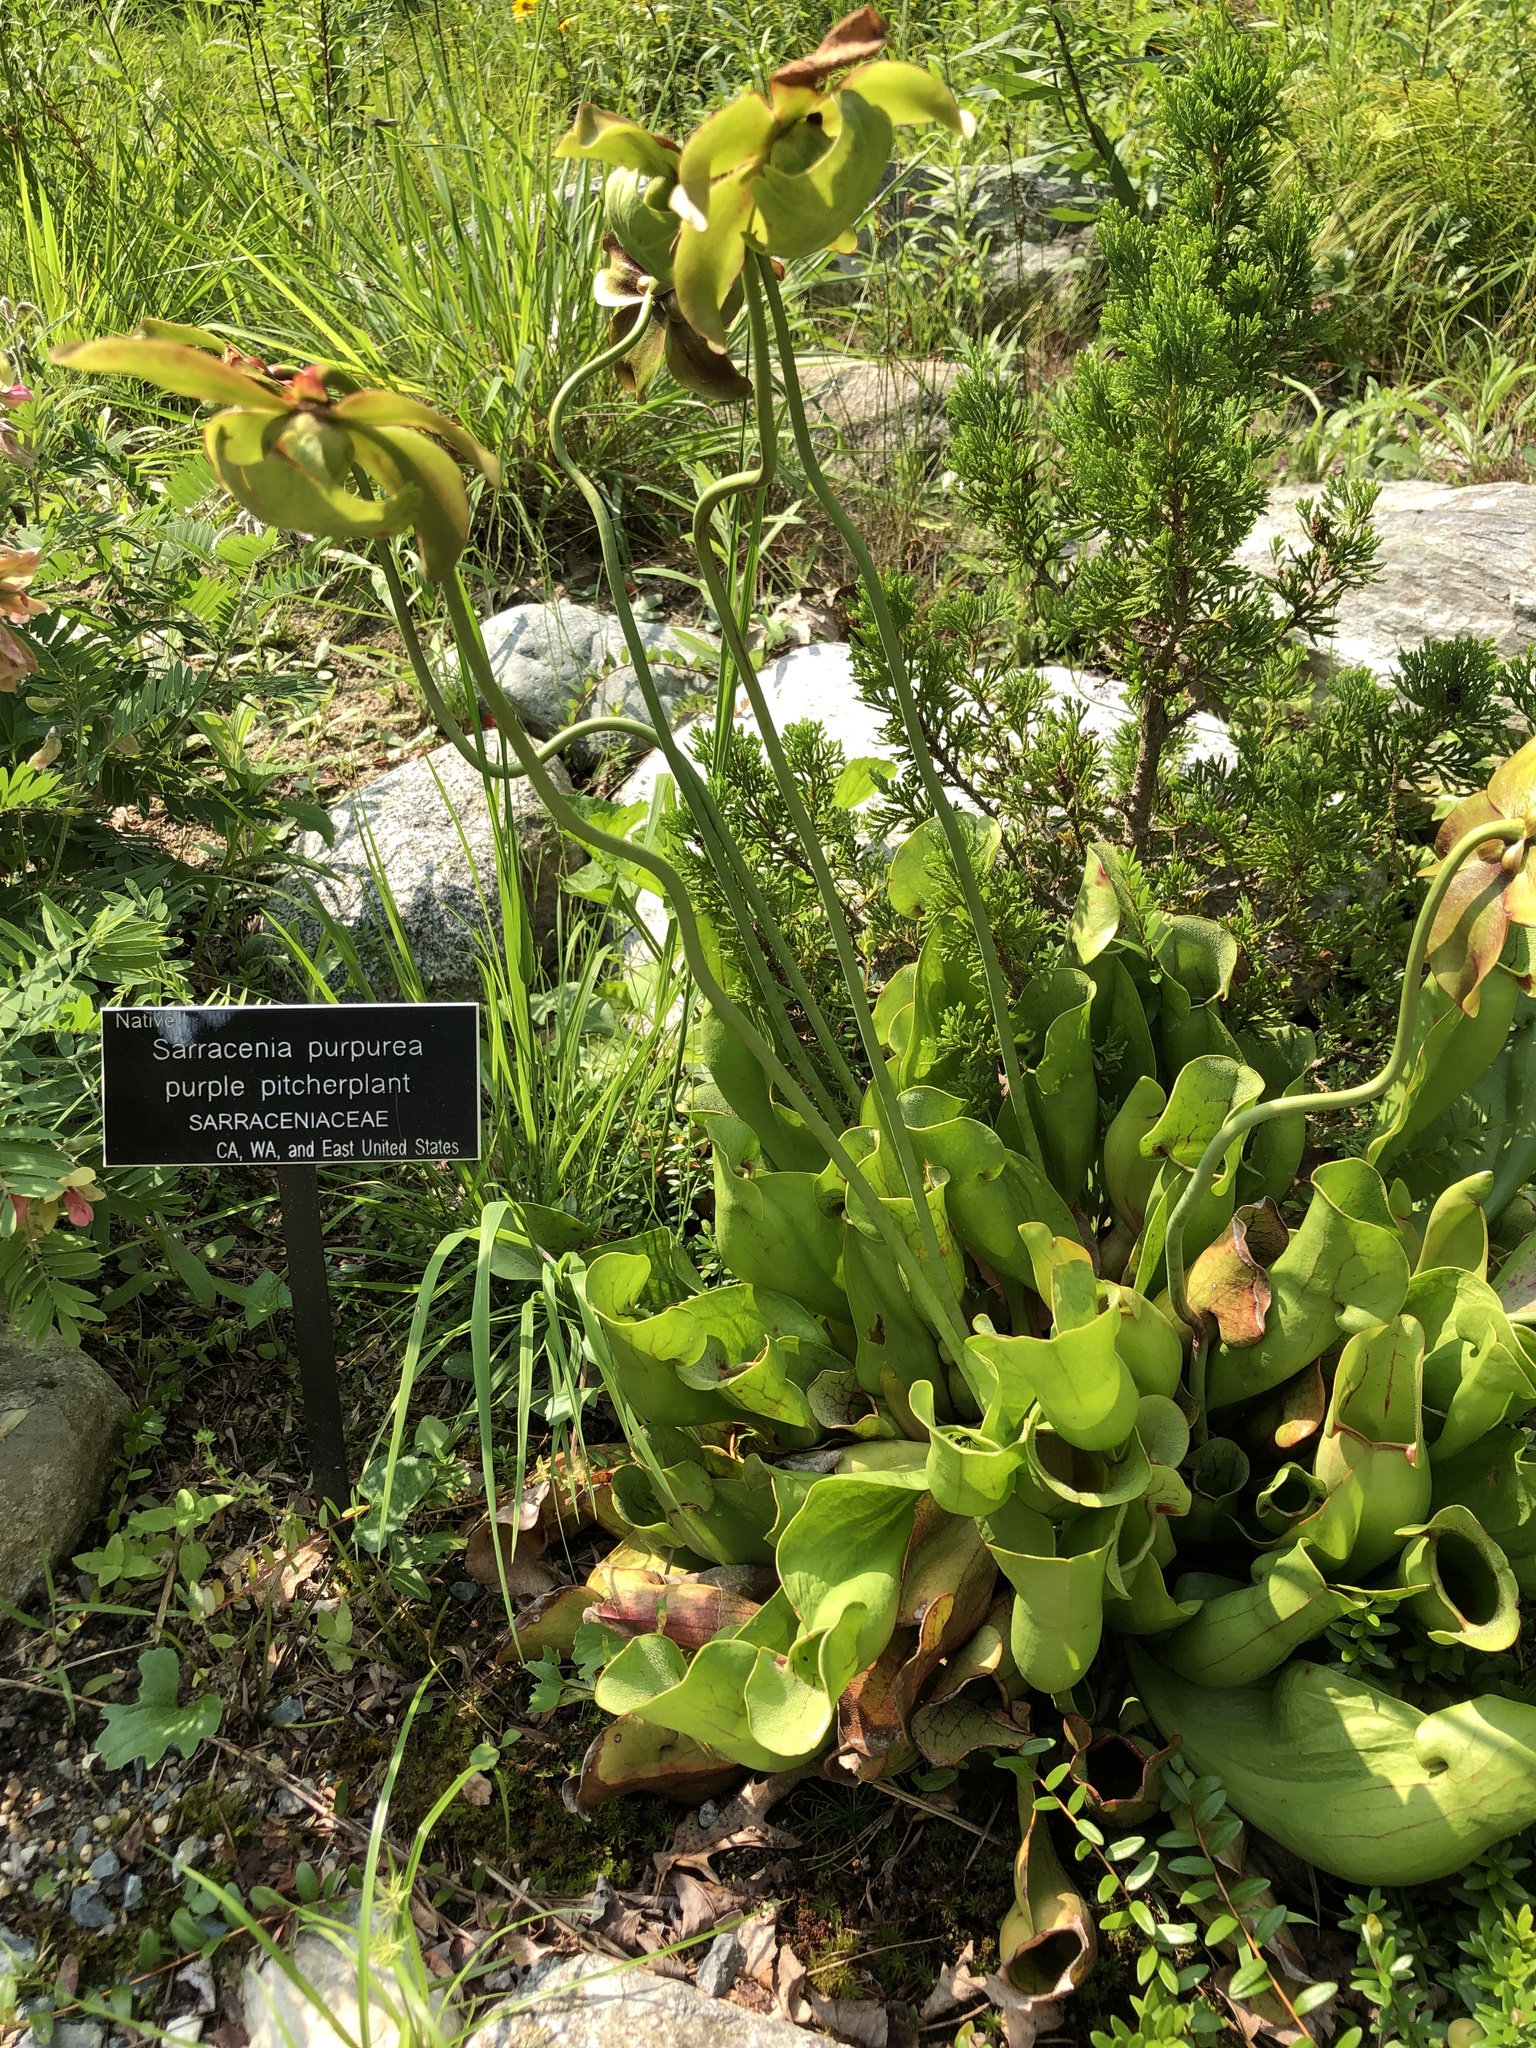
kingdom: Plantae
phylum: Tracheophyta
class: Magnoliopsida
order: Ericales
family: Sarraceniaceae
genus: Sarracenia
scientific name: Sarracenia purpurea
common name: Pitcherplant
